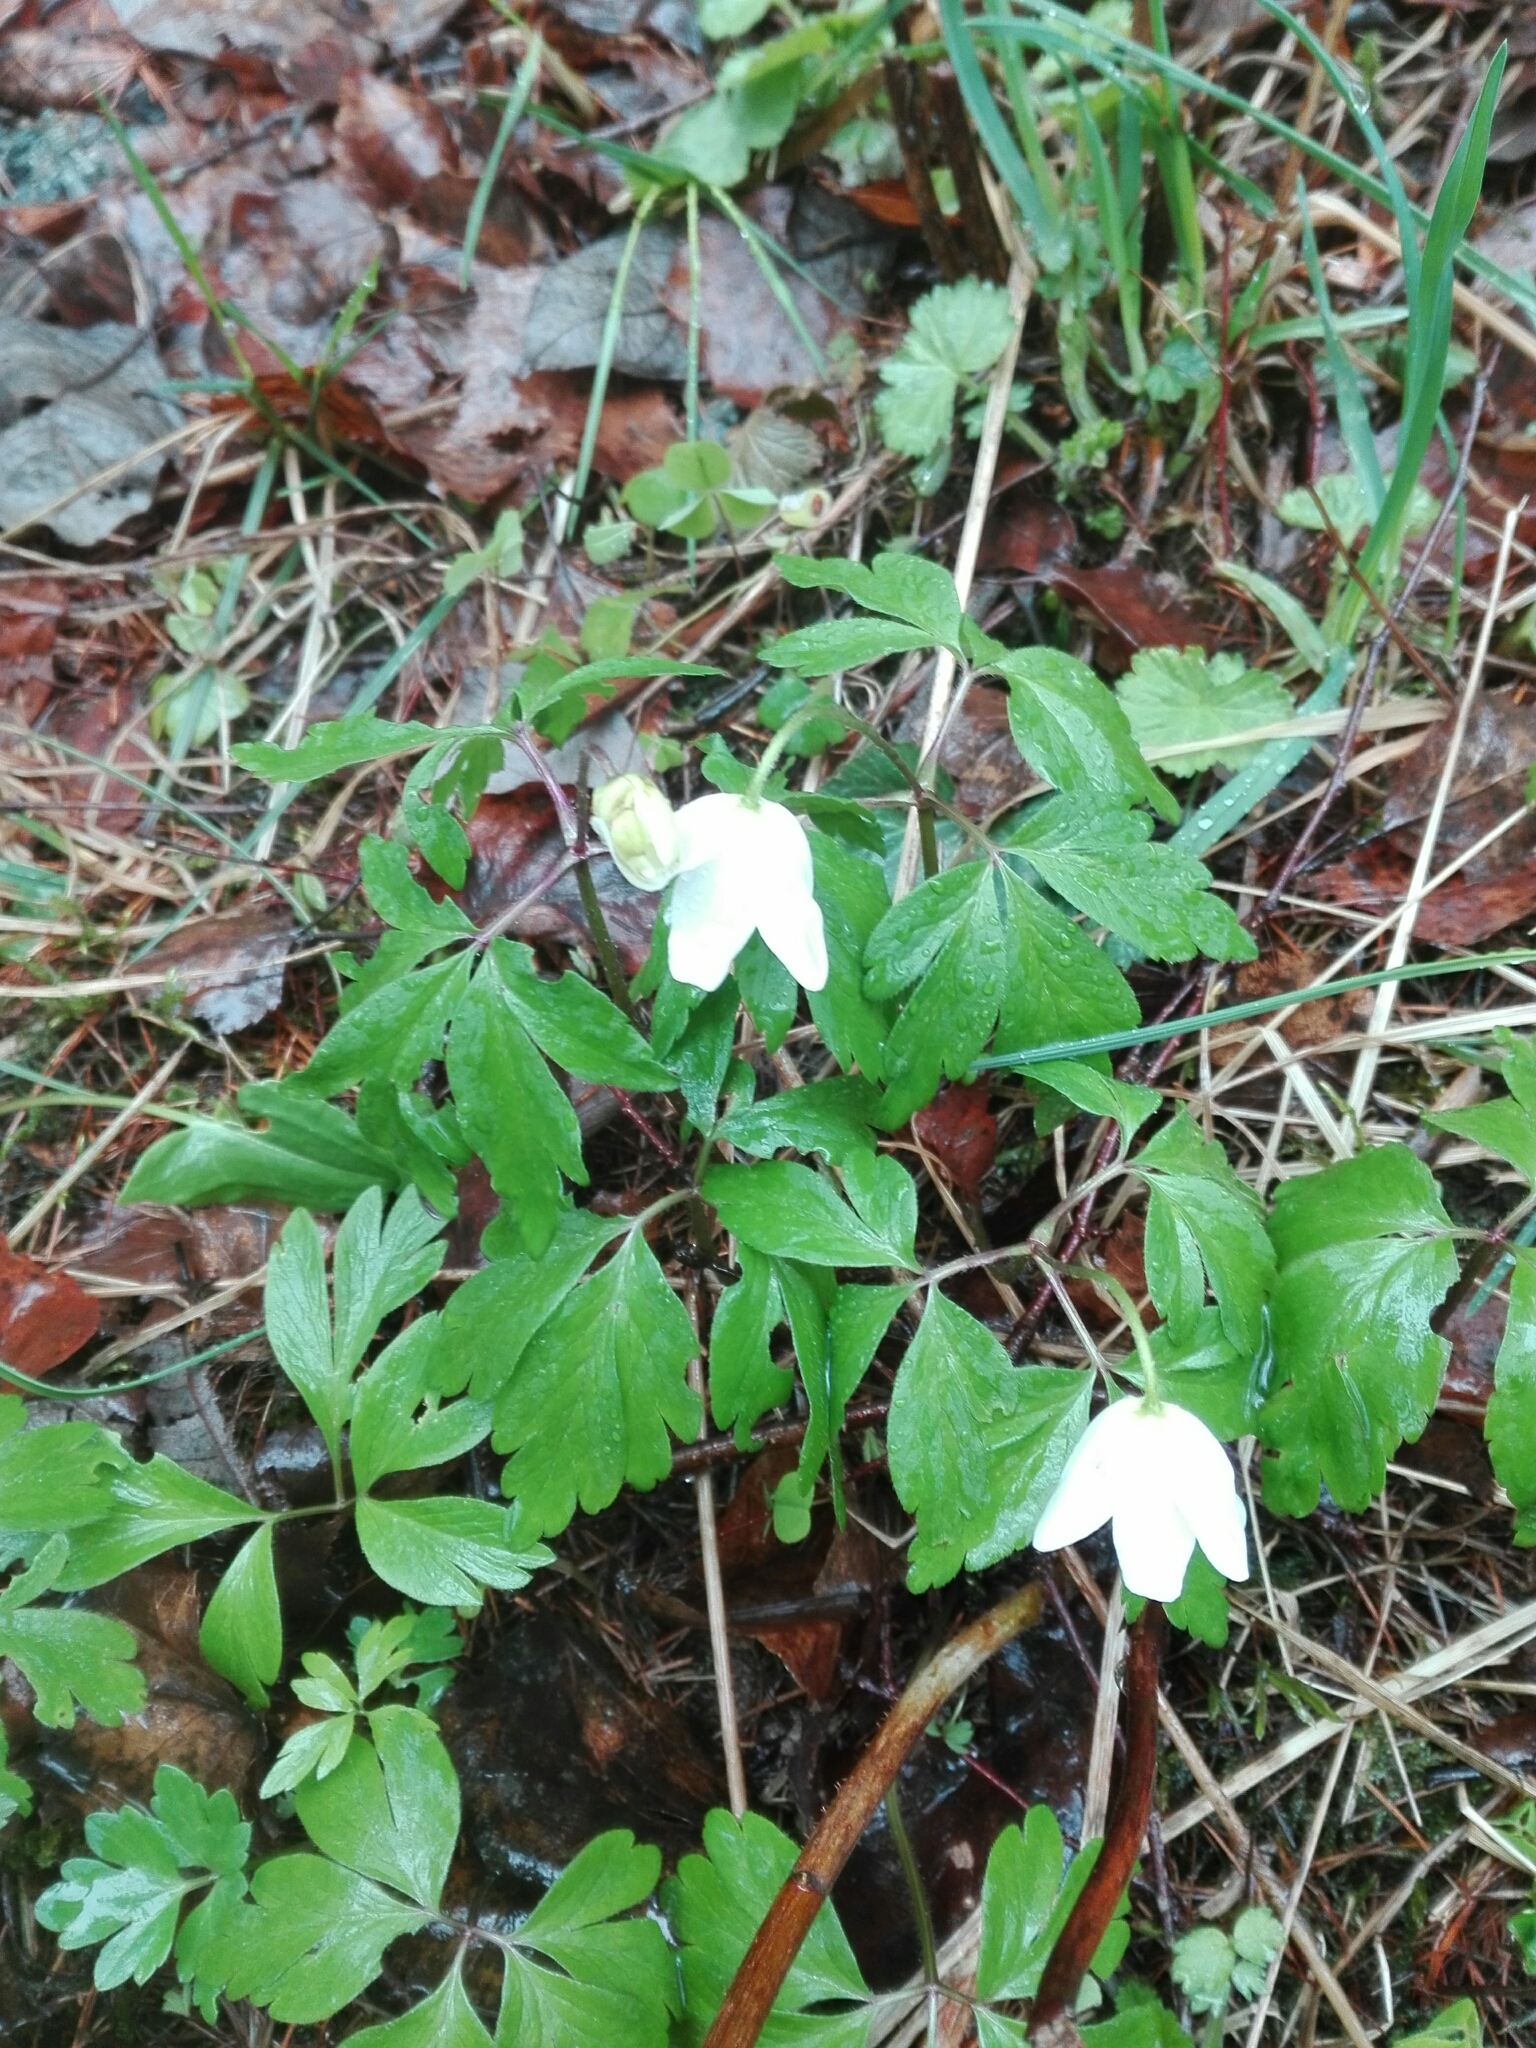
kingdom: Plantae
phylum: Tracheophyta
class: Magnoliopsida
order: Ranunculales
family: Ranunculaceae
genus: Anemone
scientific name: Anemone nemorosa
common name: Wood anemone
